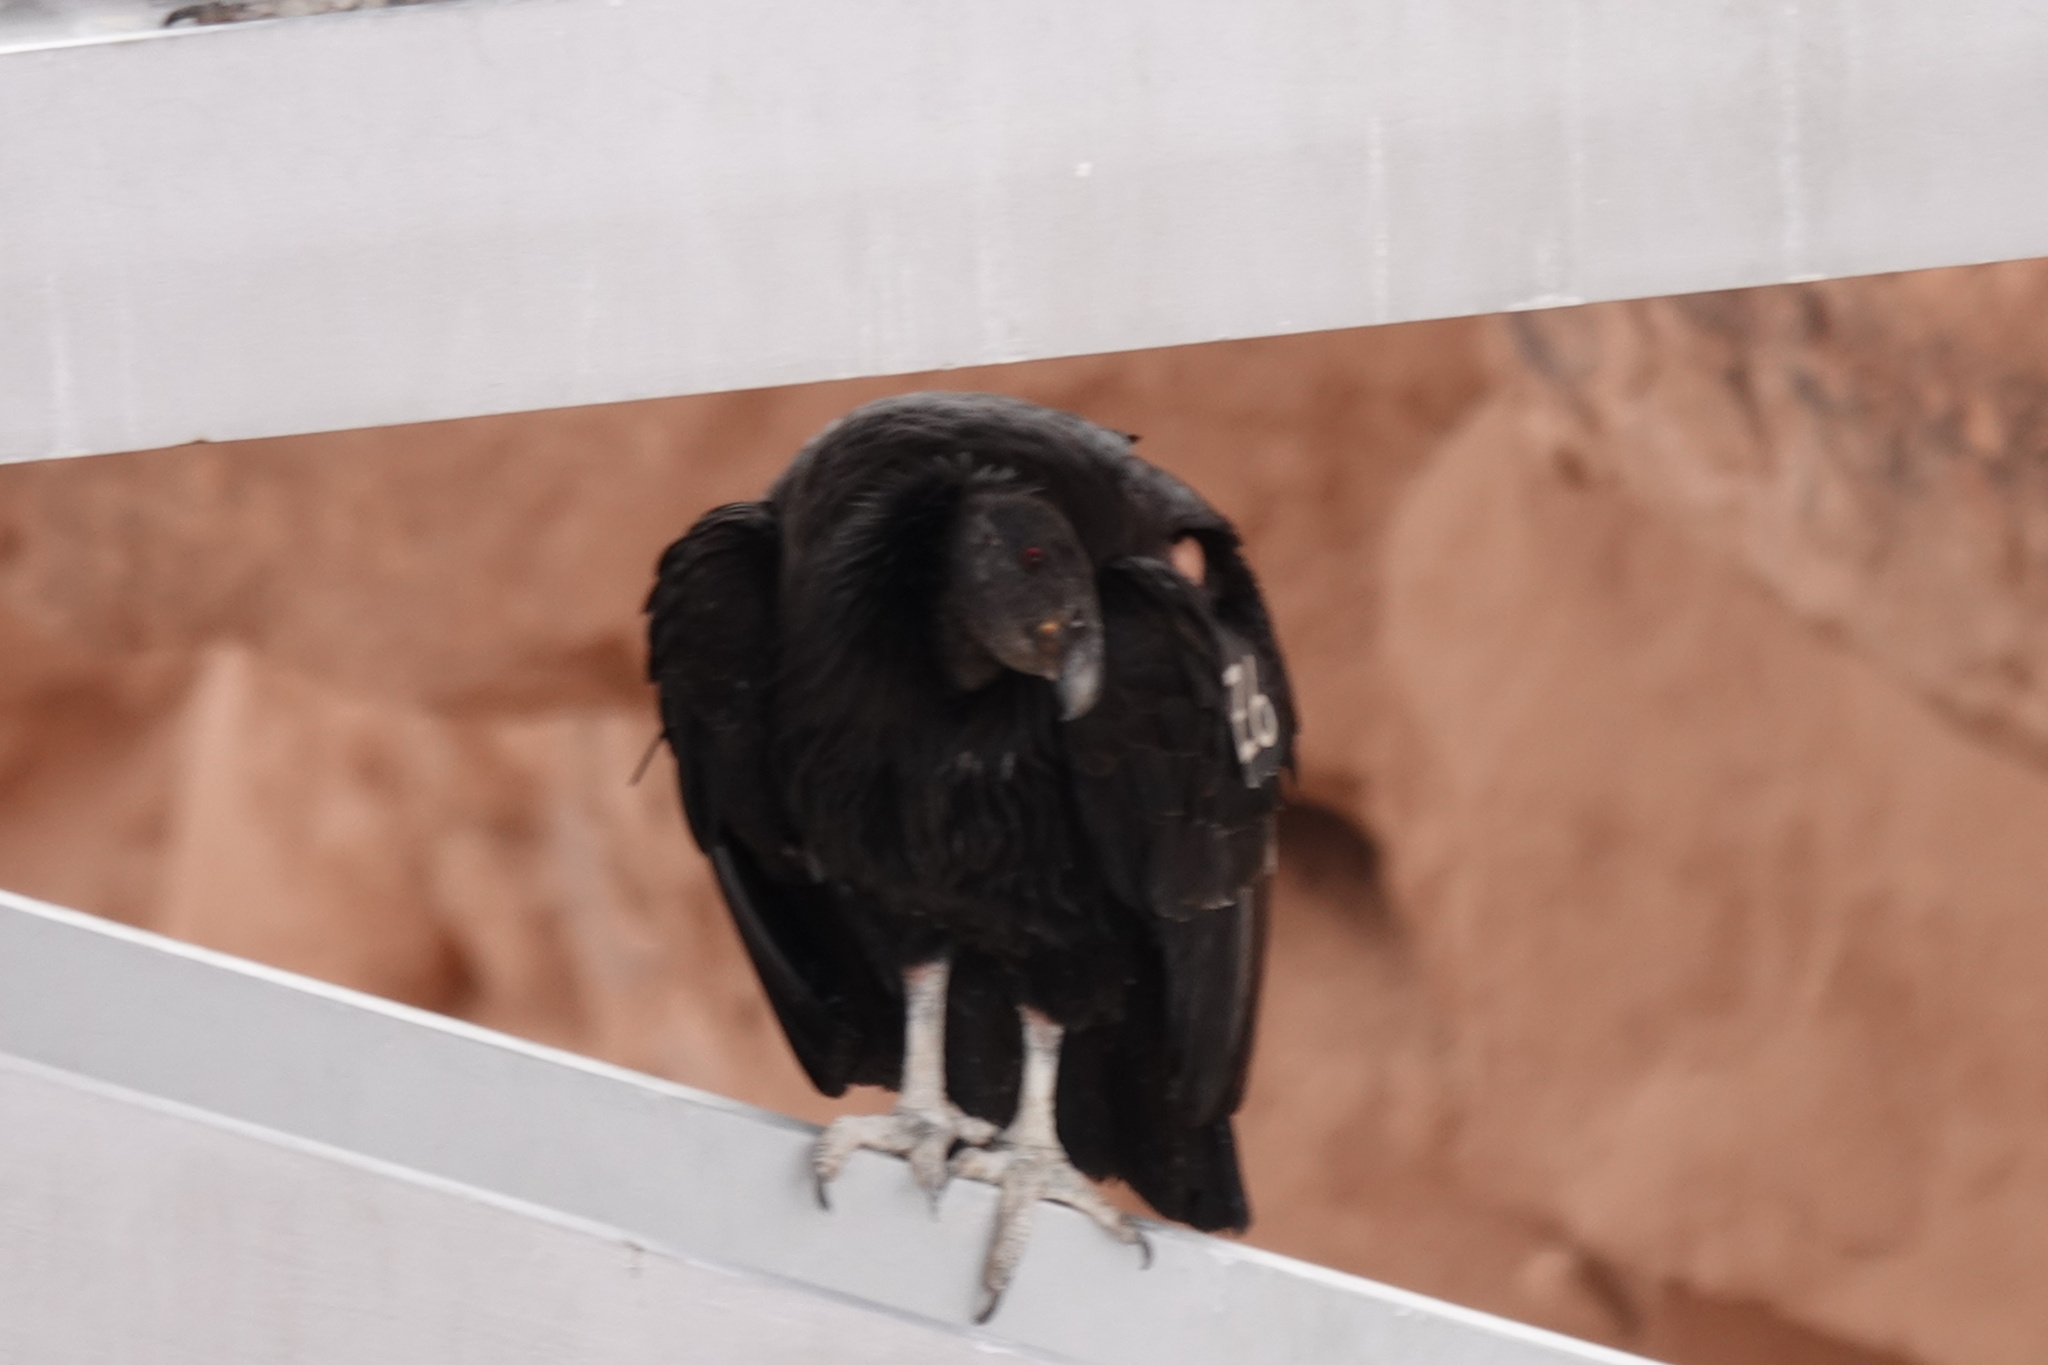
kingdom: Animalia
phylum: Chordata
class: Aves
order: Accipitriformes
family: Cathartidae
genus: Gymnogyps
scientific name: Gymnogyps californianus
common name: California condor
